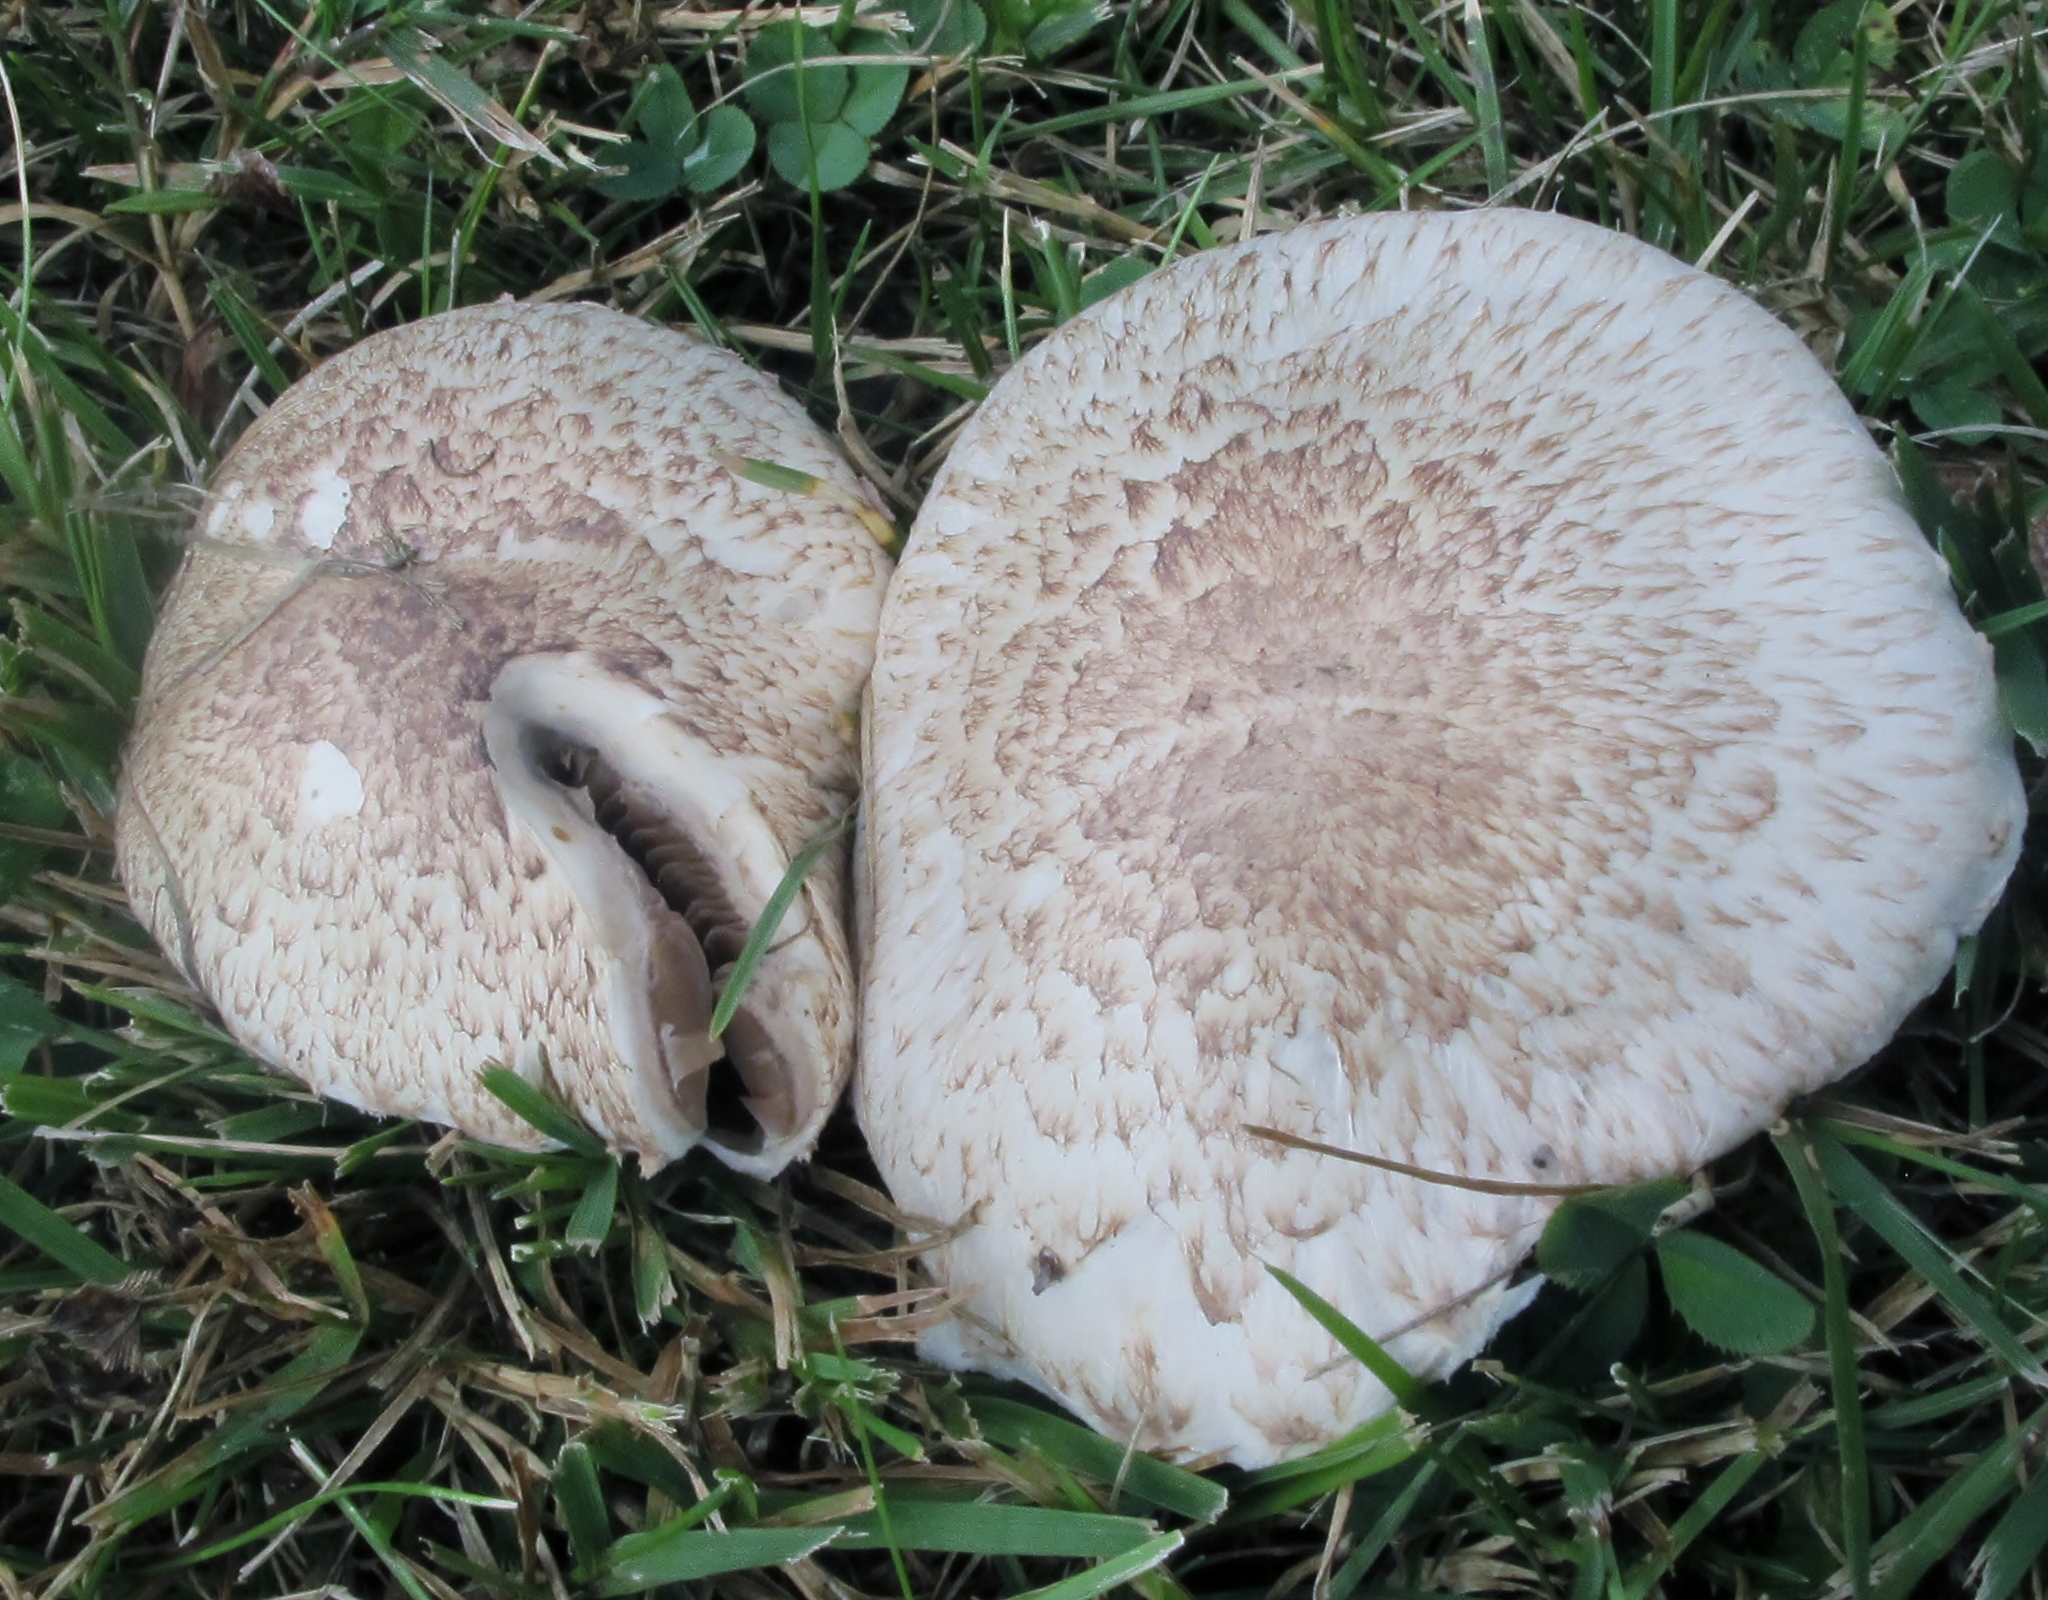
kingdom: Fungi
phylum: Basidiomycota
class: Agaricomycetes
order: Agaricales
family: Agaricaceae
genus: Agaricus
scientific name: Agaricus porphyrocephalus
